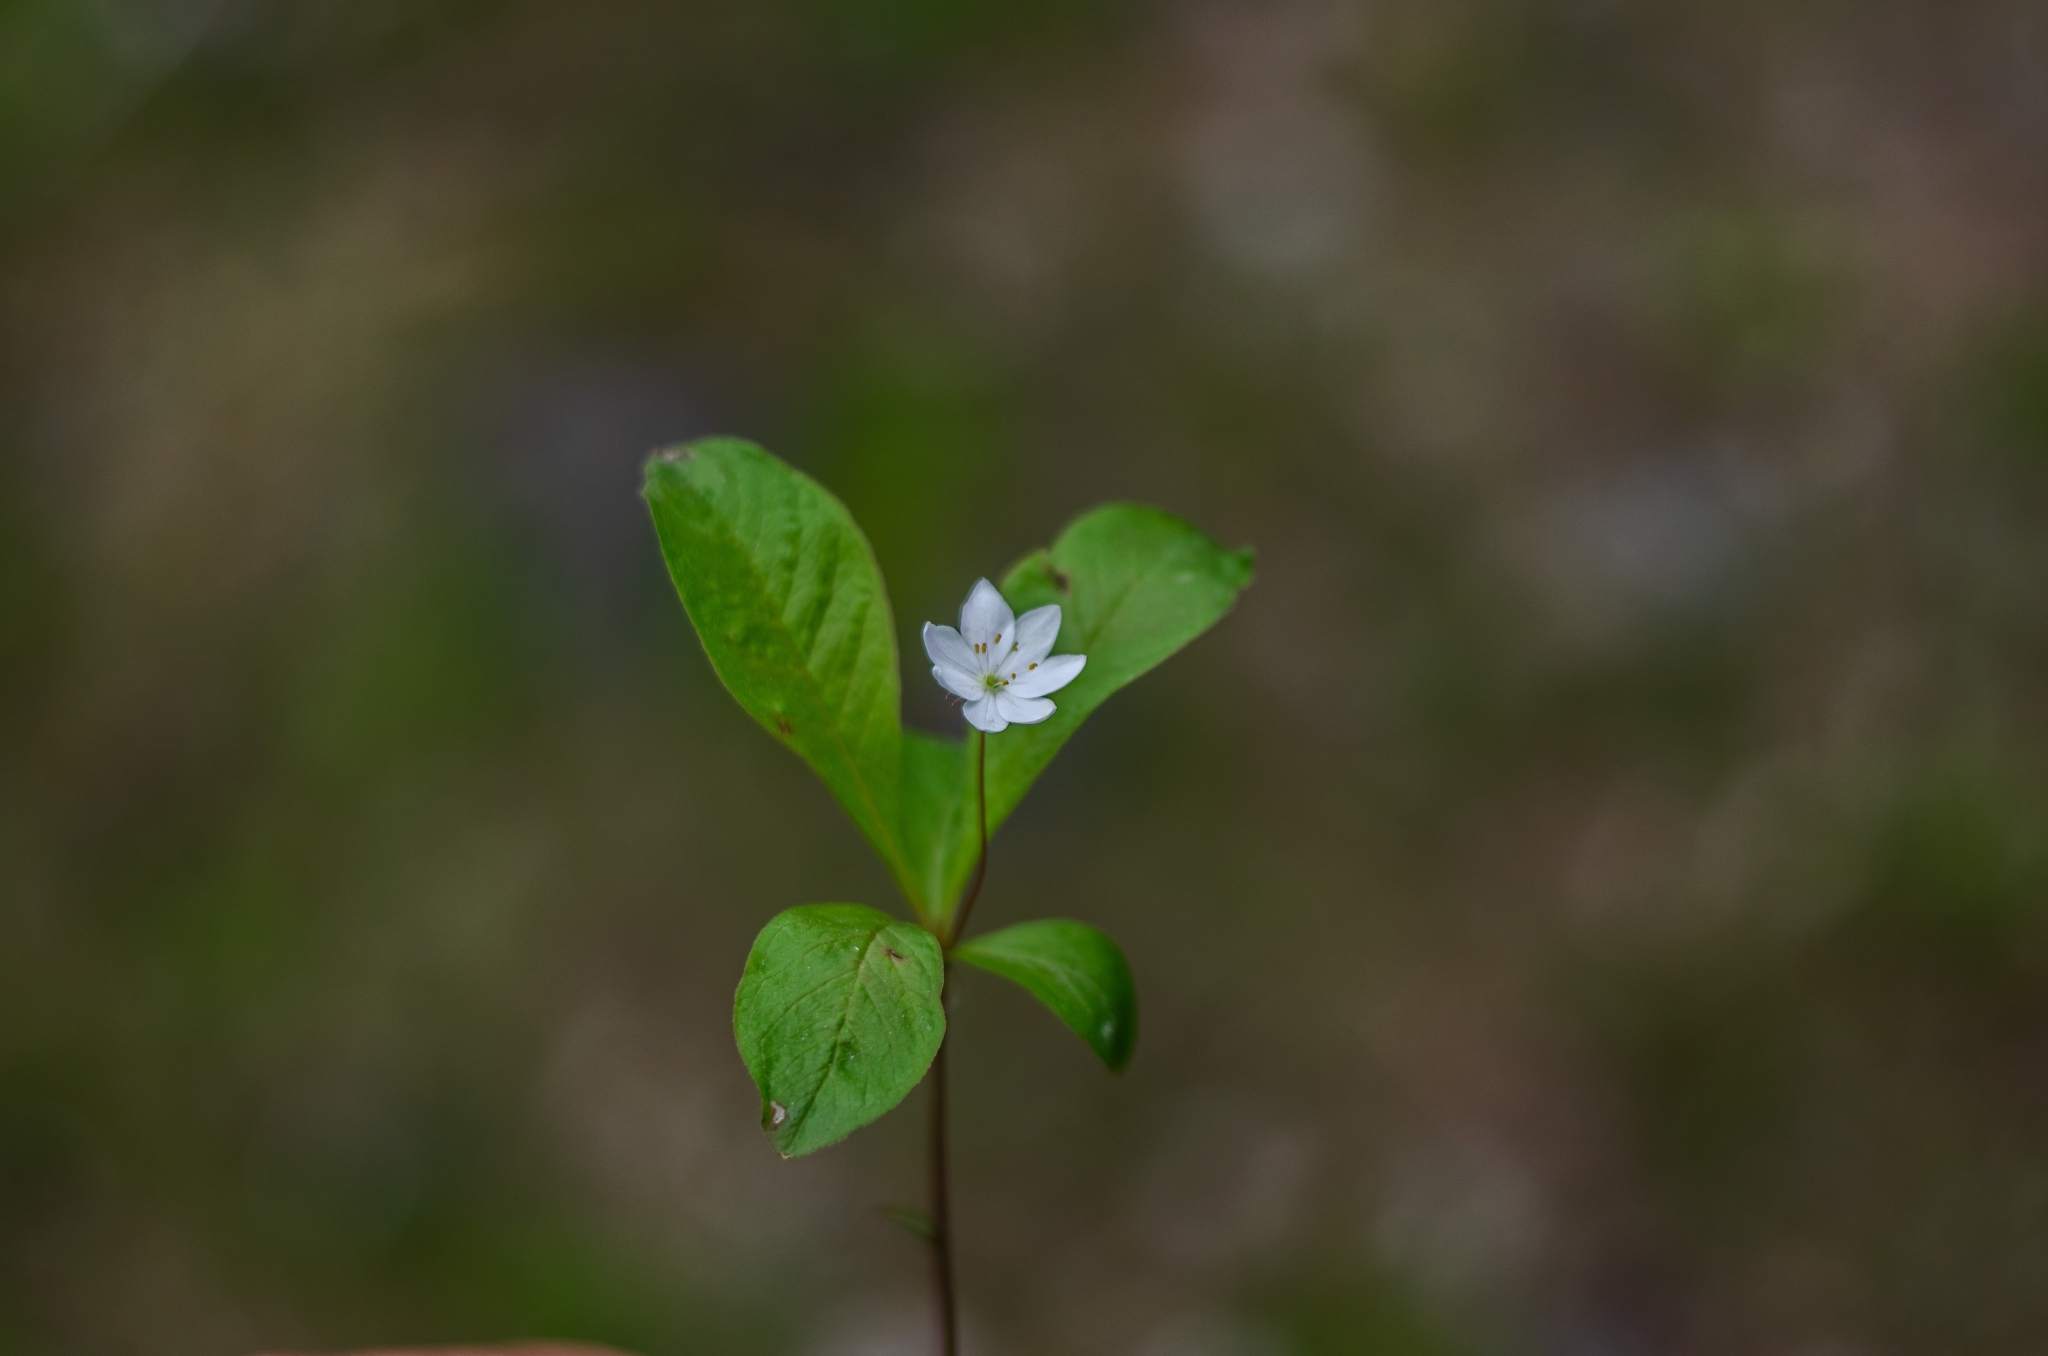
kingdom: Plantae
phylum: Tracheophyta
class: Magnoliopsida
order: Ericales
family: Primulaceae
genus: Lysimachia
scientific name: Lysimachia europaea
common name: Arctic starflower
